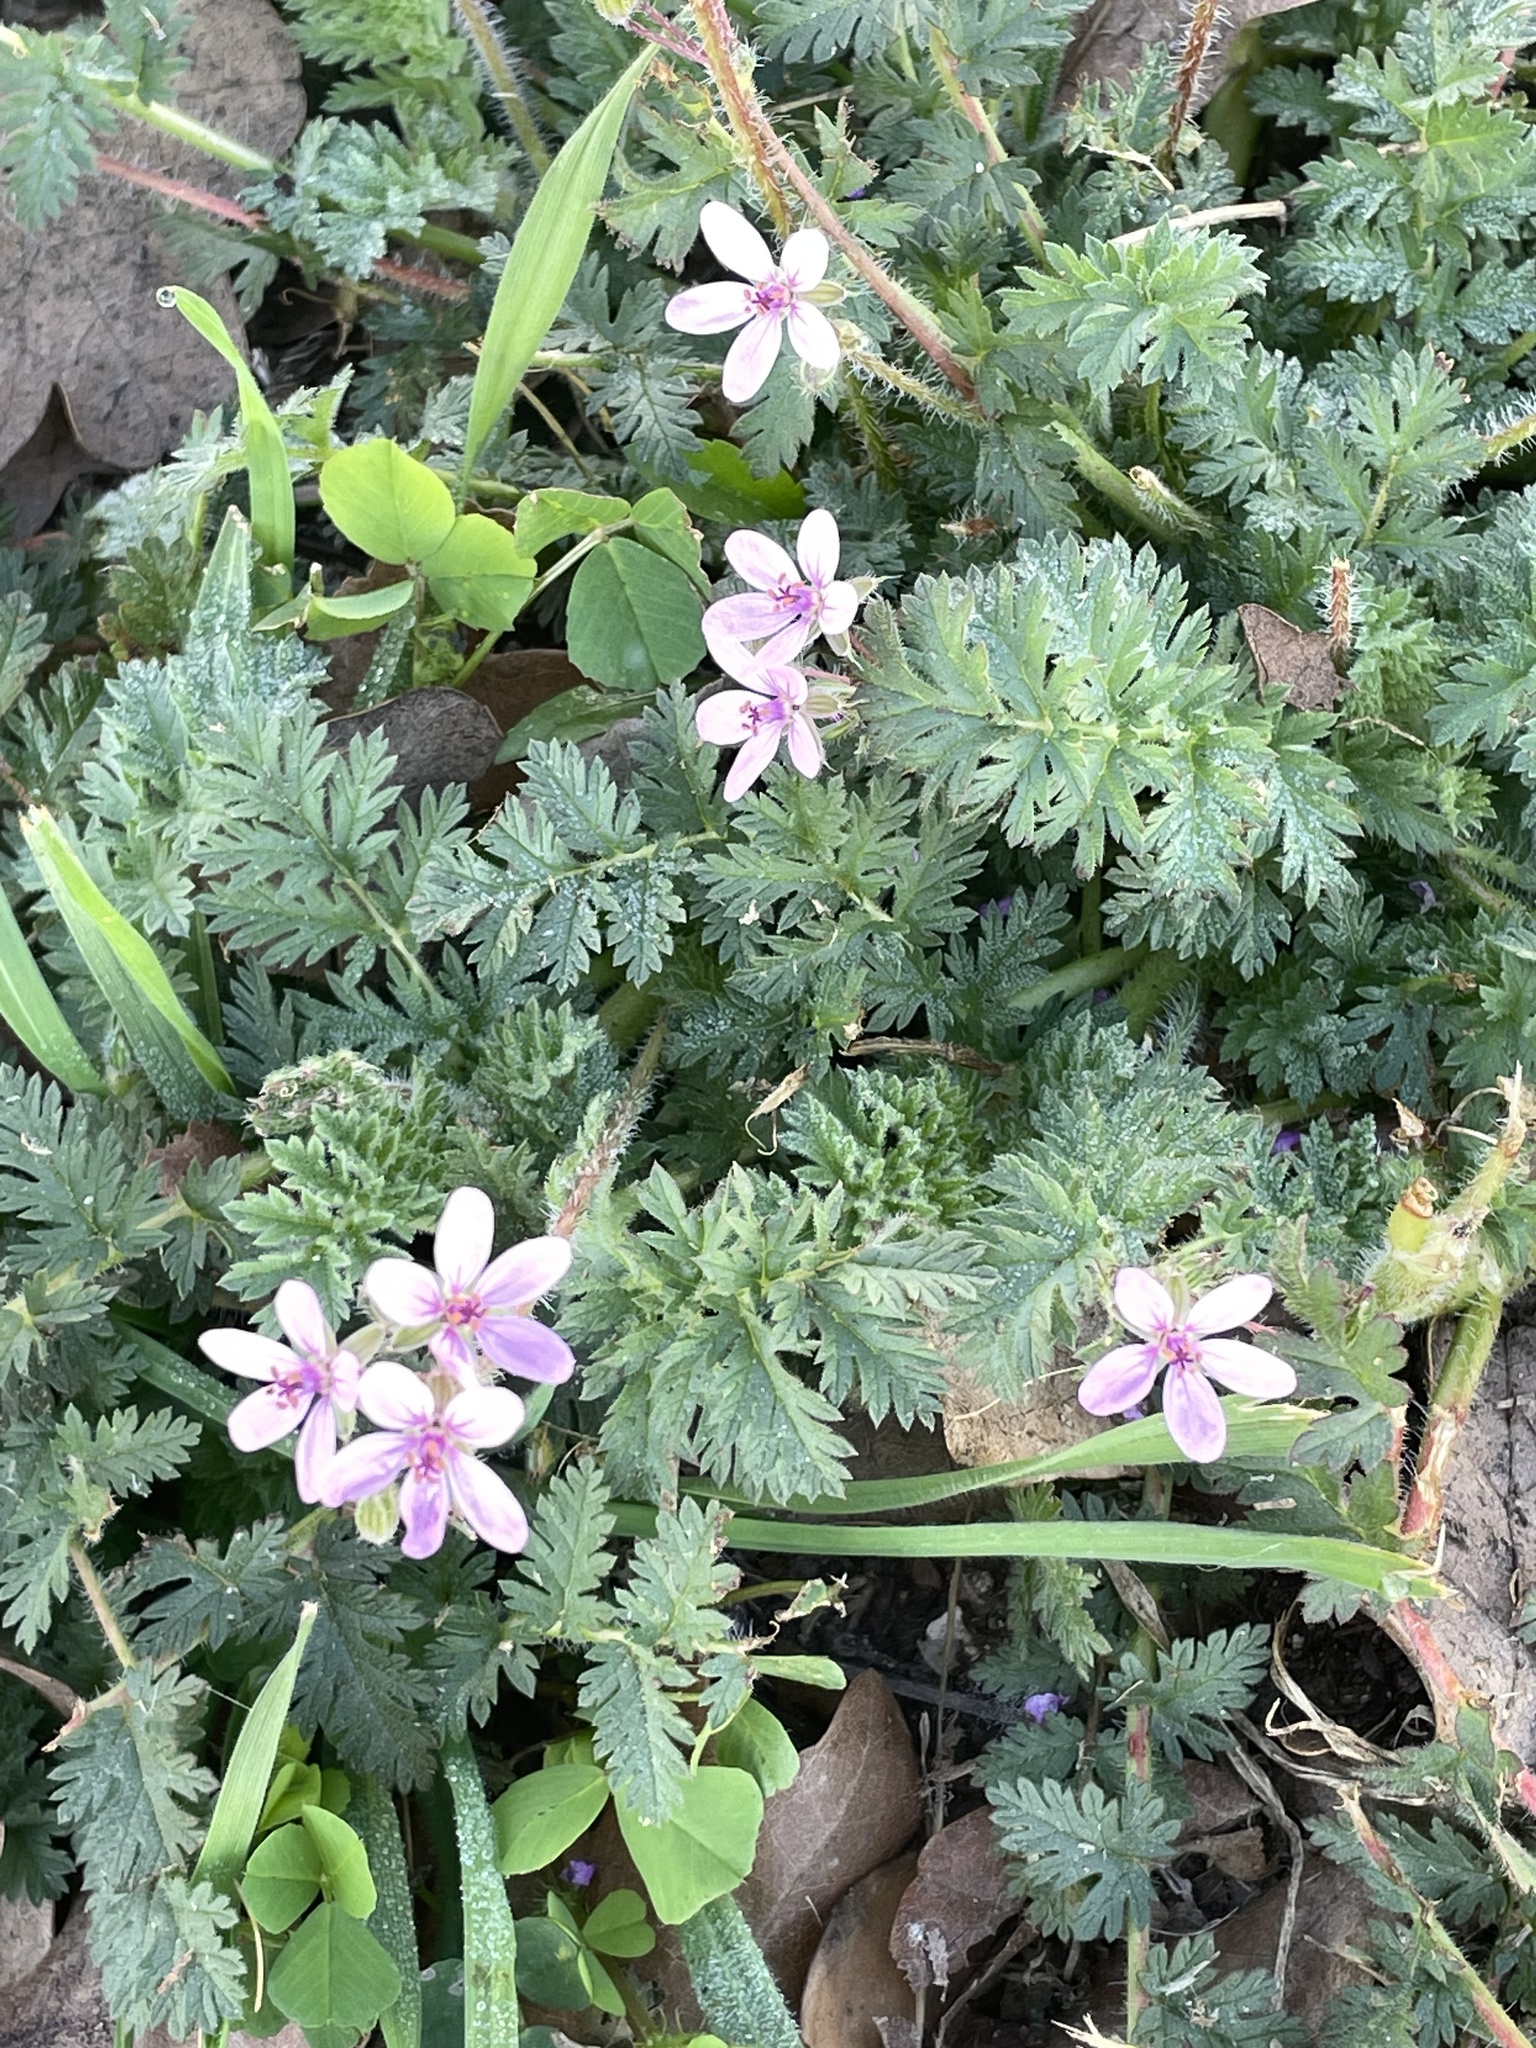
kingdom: Plantae
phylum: Tracheophyta
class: Magnoliopsida
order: Geraniales
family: Geraniaceae
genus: Erodium
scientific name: Erodium cicutarium
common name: Common stork's-bill
